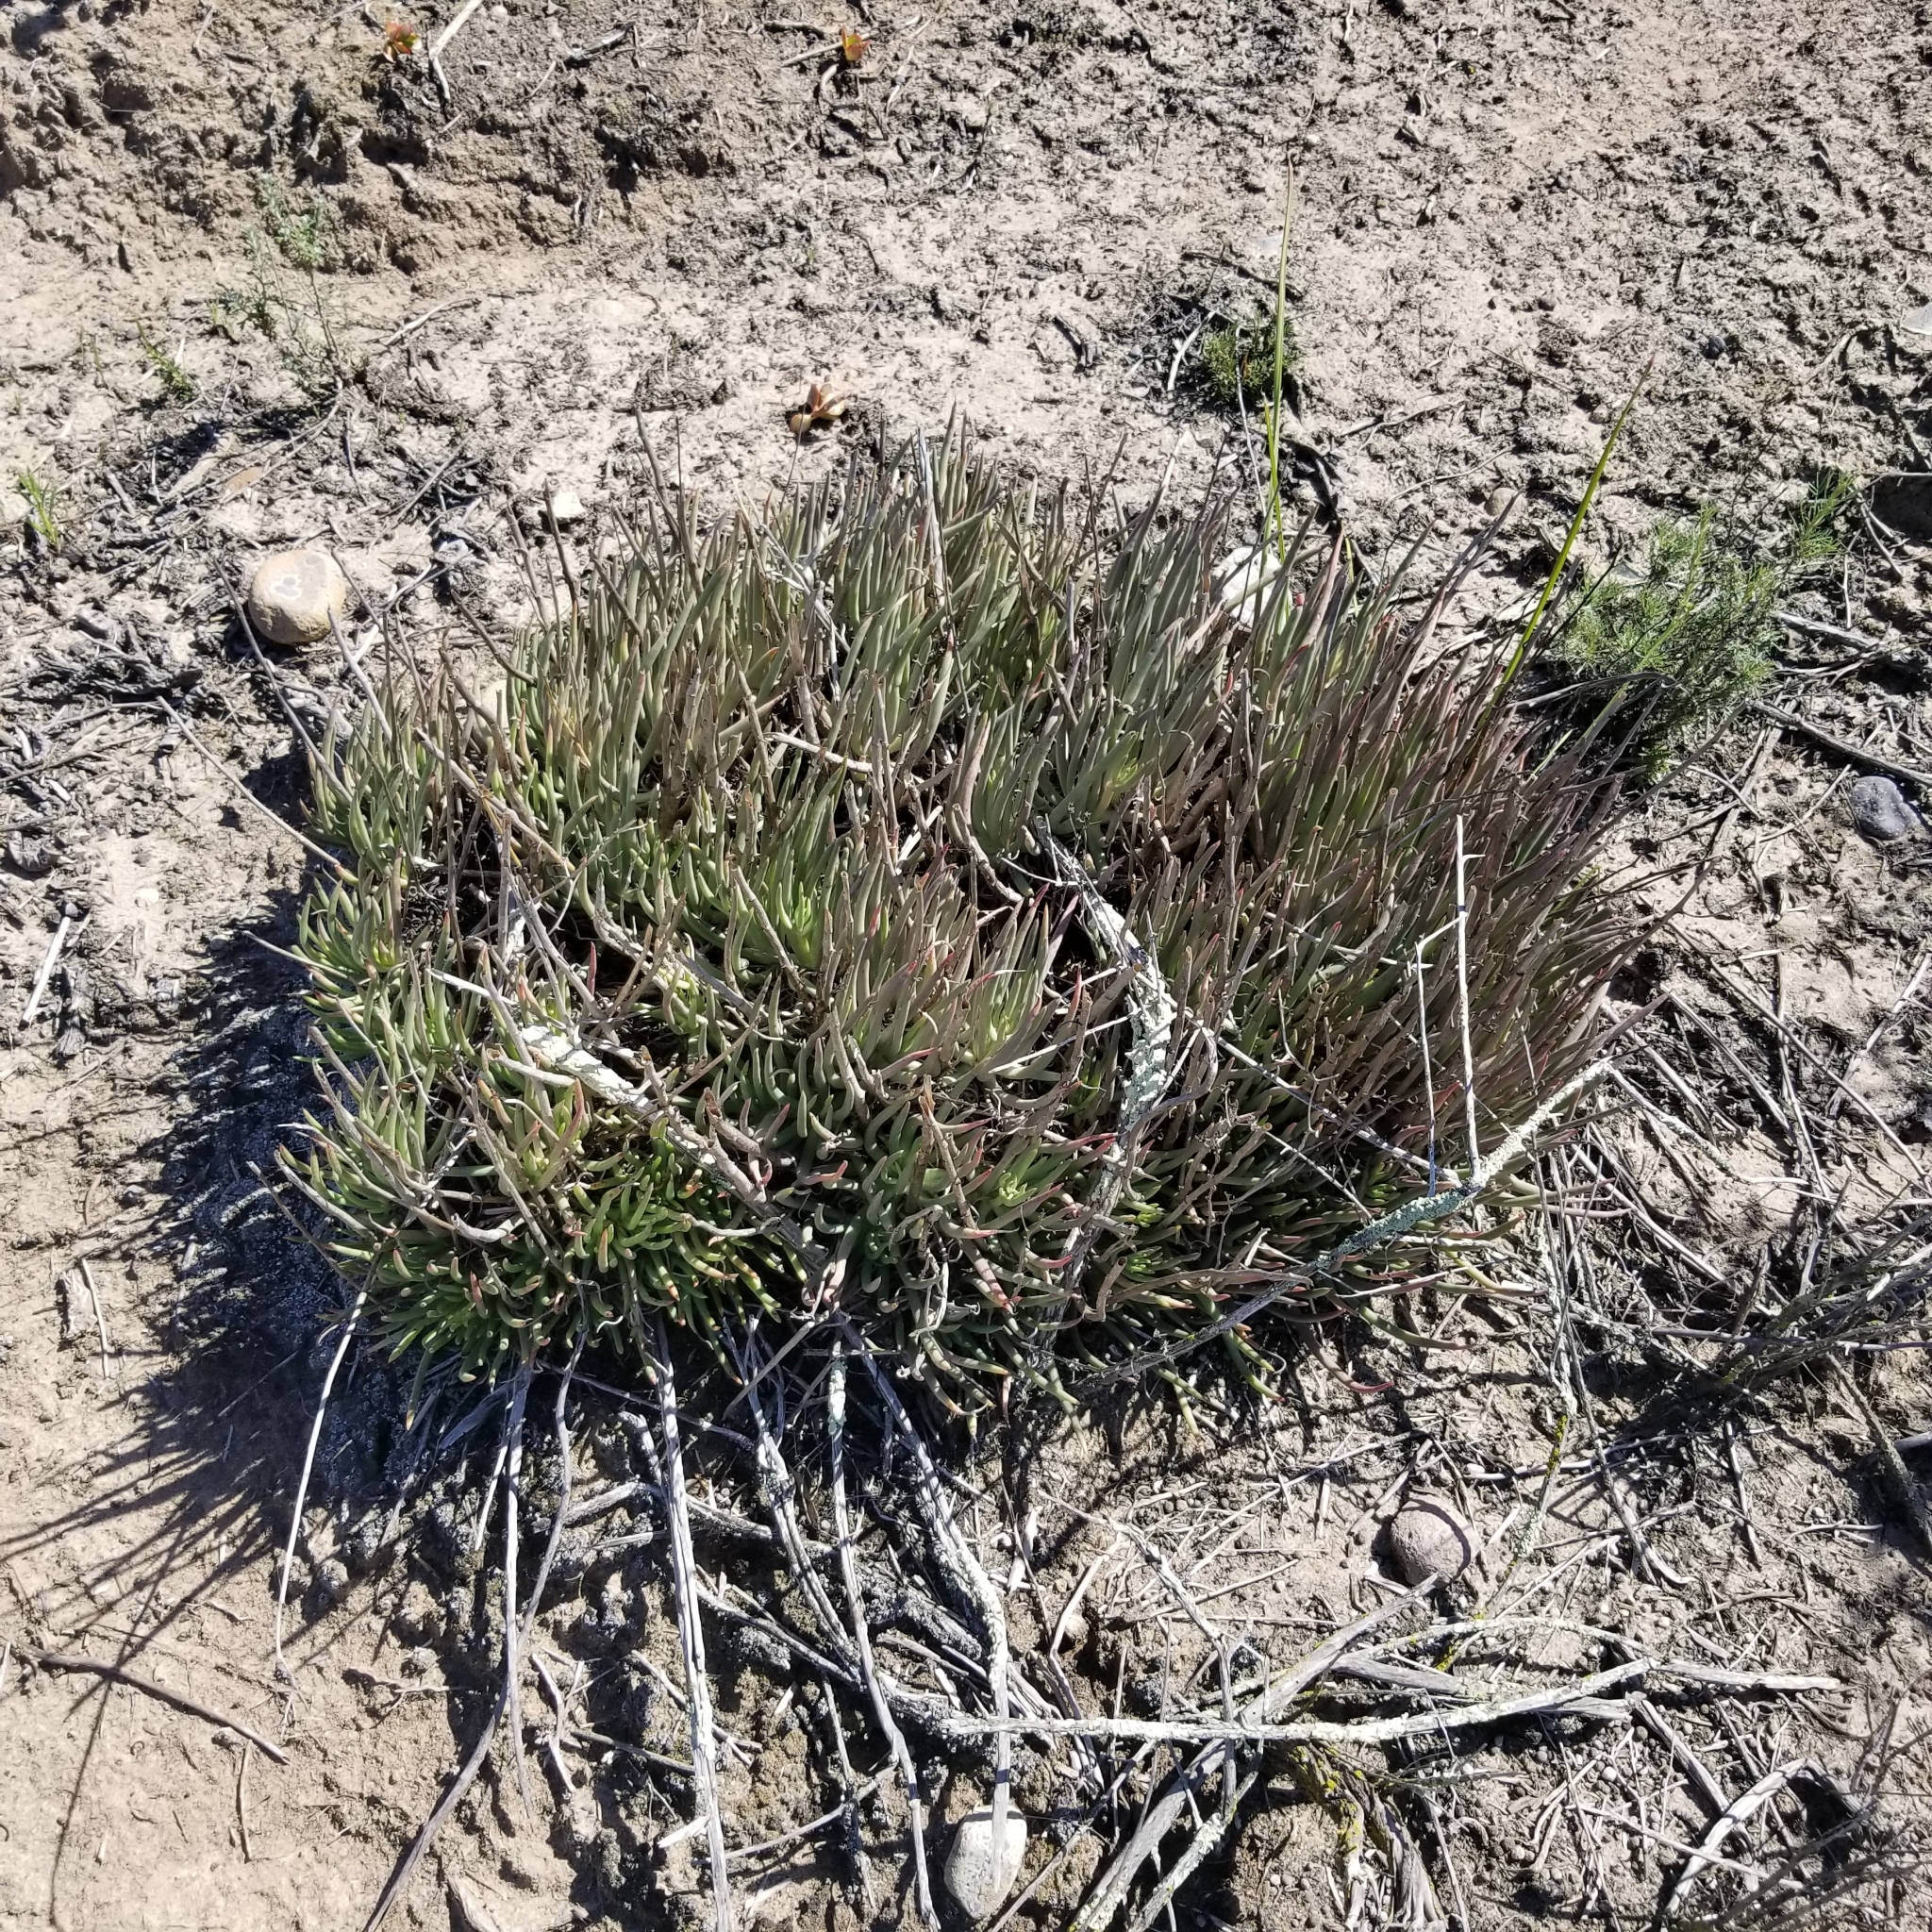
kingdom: Plantae
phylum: Tracheophyta
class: Magnoliopsida
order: Saxifragales
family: Crassulaceae
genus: Dudleya
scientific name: Dudleya edulis
